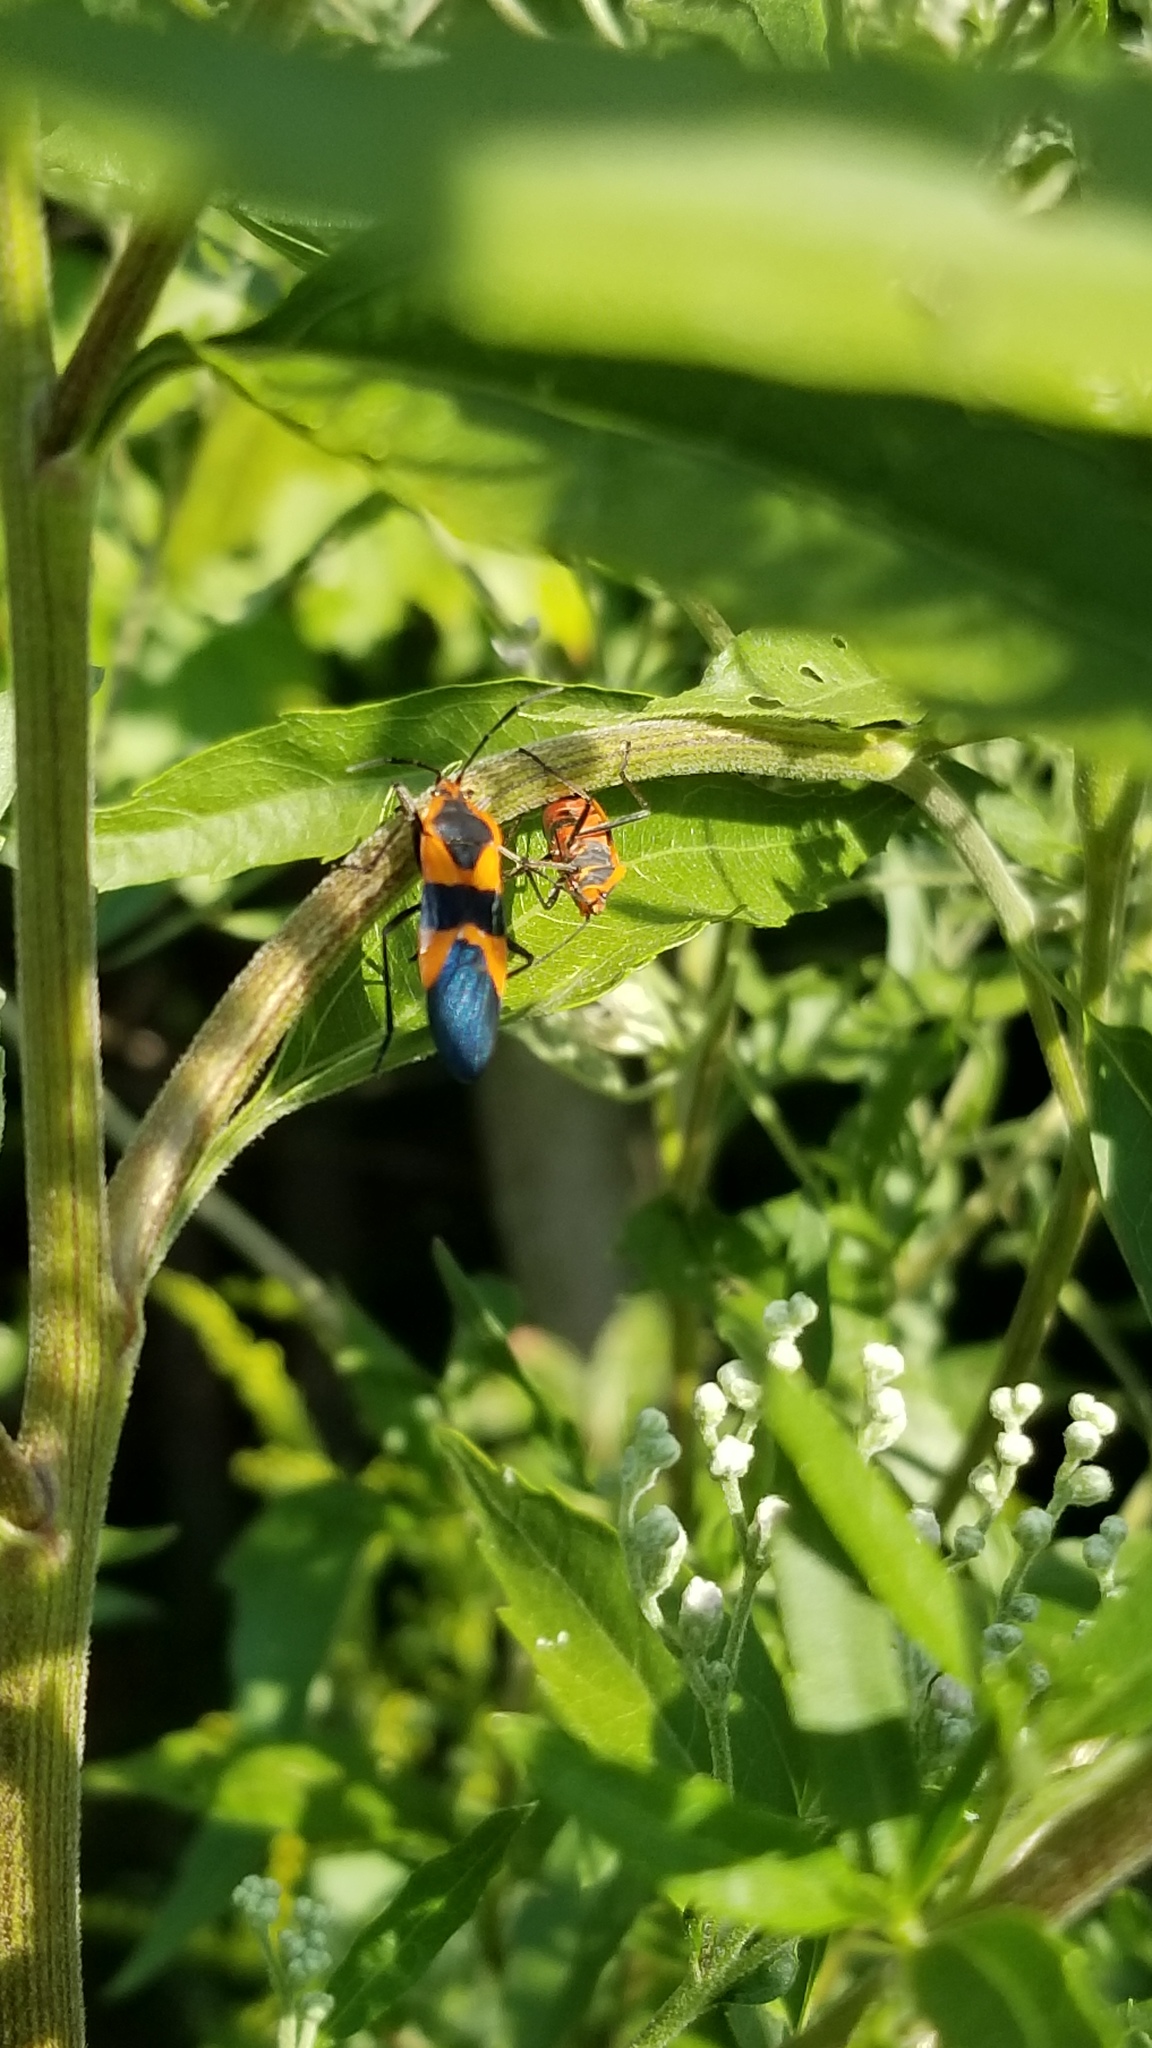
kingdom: Animalia
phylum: Arthropoda
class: Insecta
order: Hemiptera
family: Lygaeidae
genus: Oncopeltus
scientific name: Oncopeltus fasciatus
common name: Large milkweed bug
